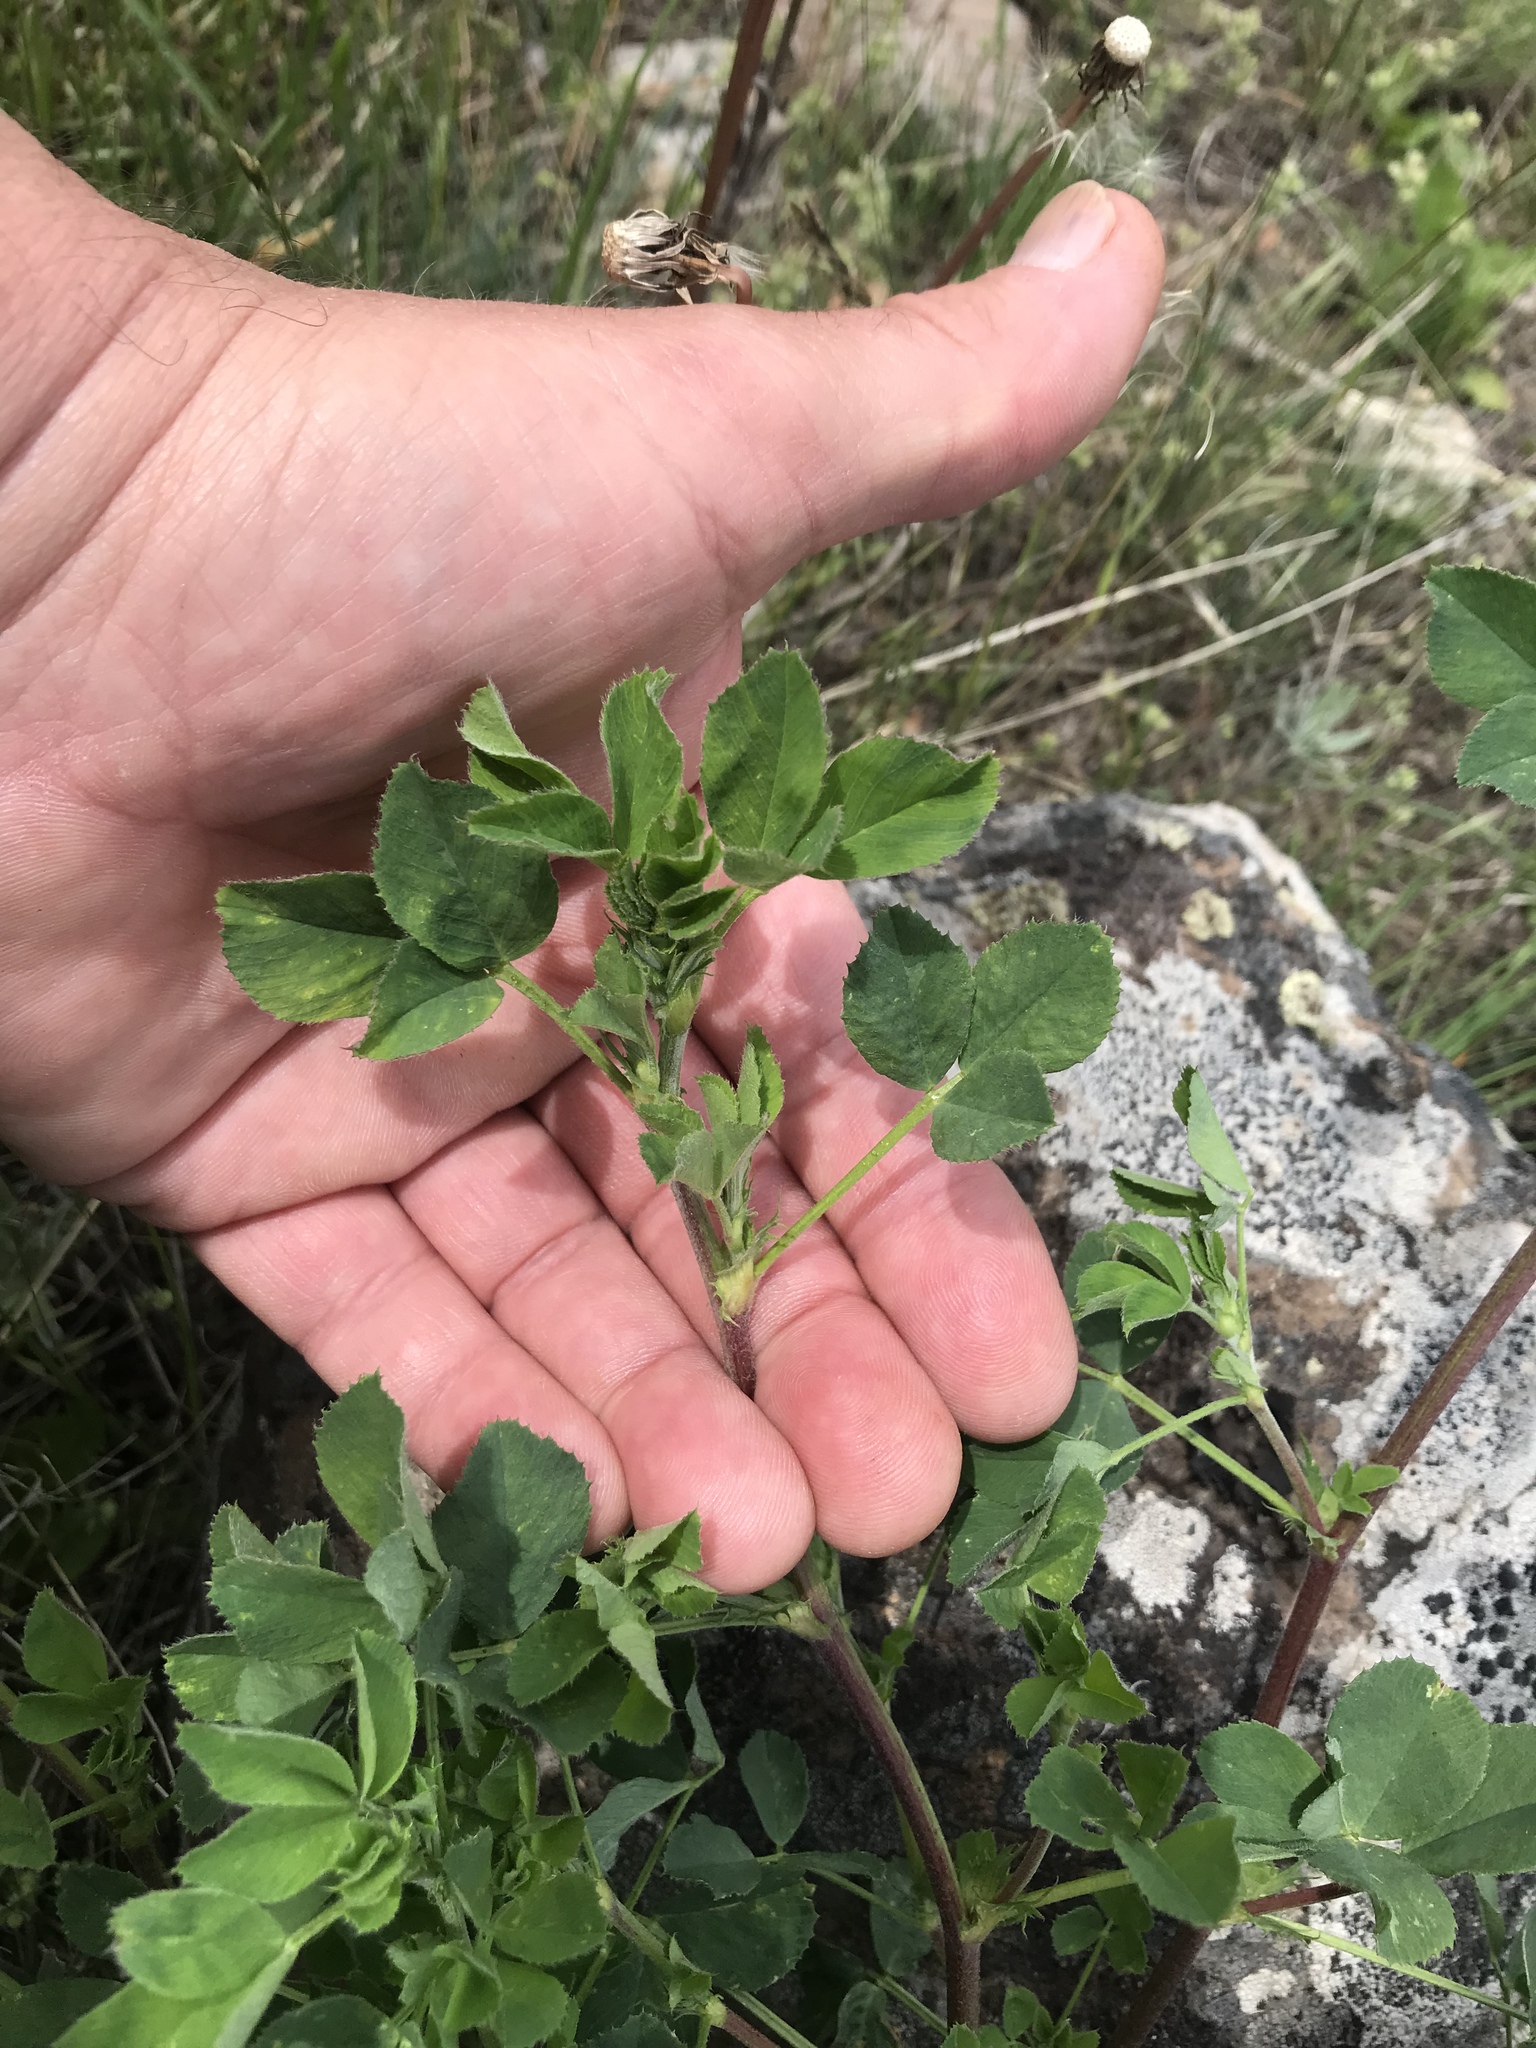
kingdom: Plantae
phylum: Tracheophyta
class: Magnoliopsida
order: Fabales
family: Fabaceae
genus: Medicago
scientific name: Medicago sativa
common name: Alfalfa
